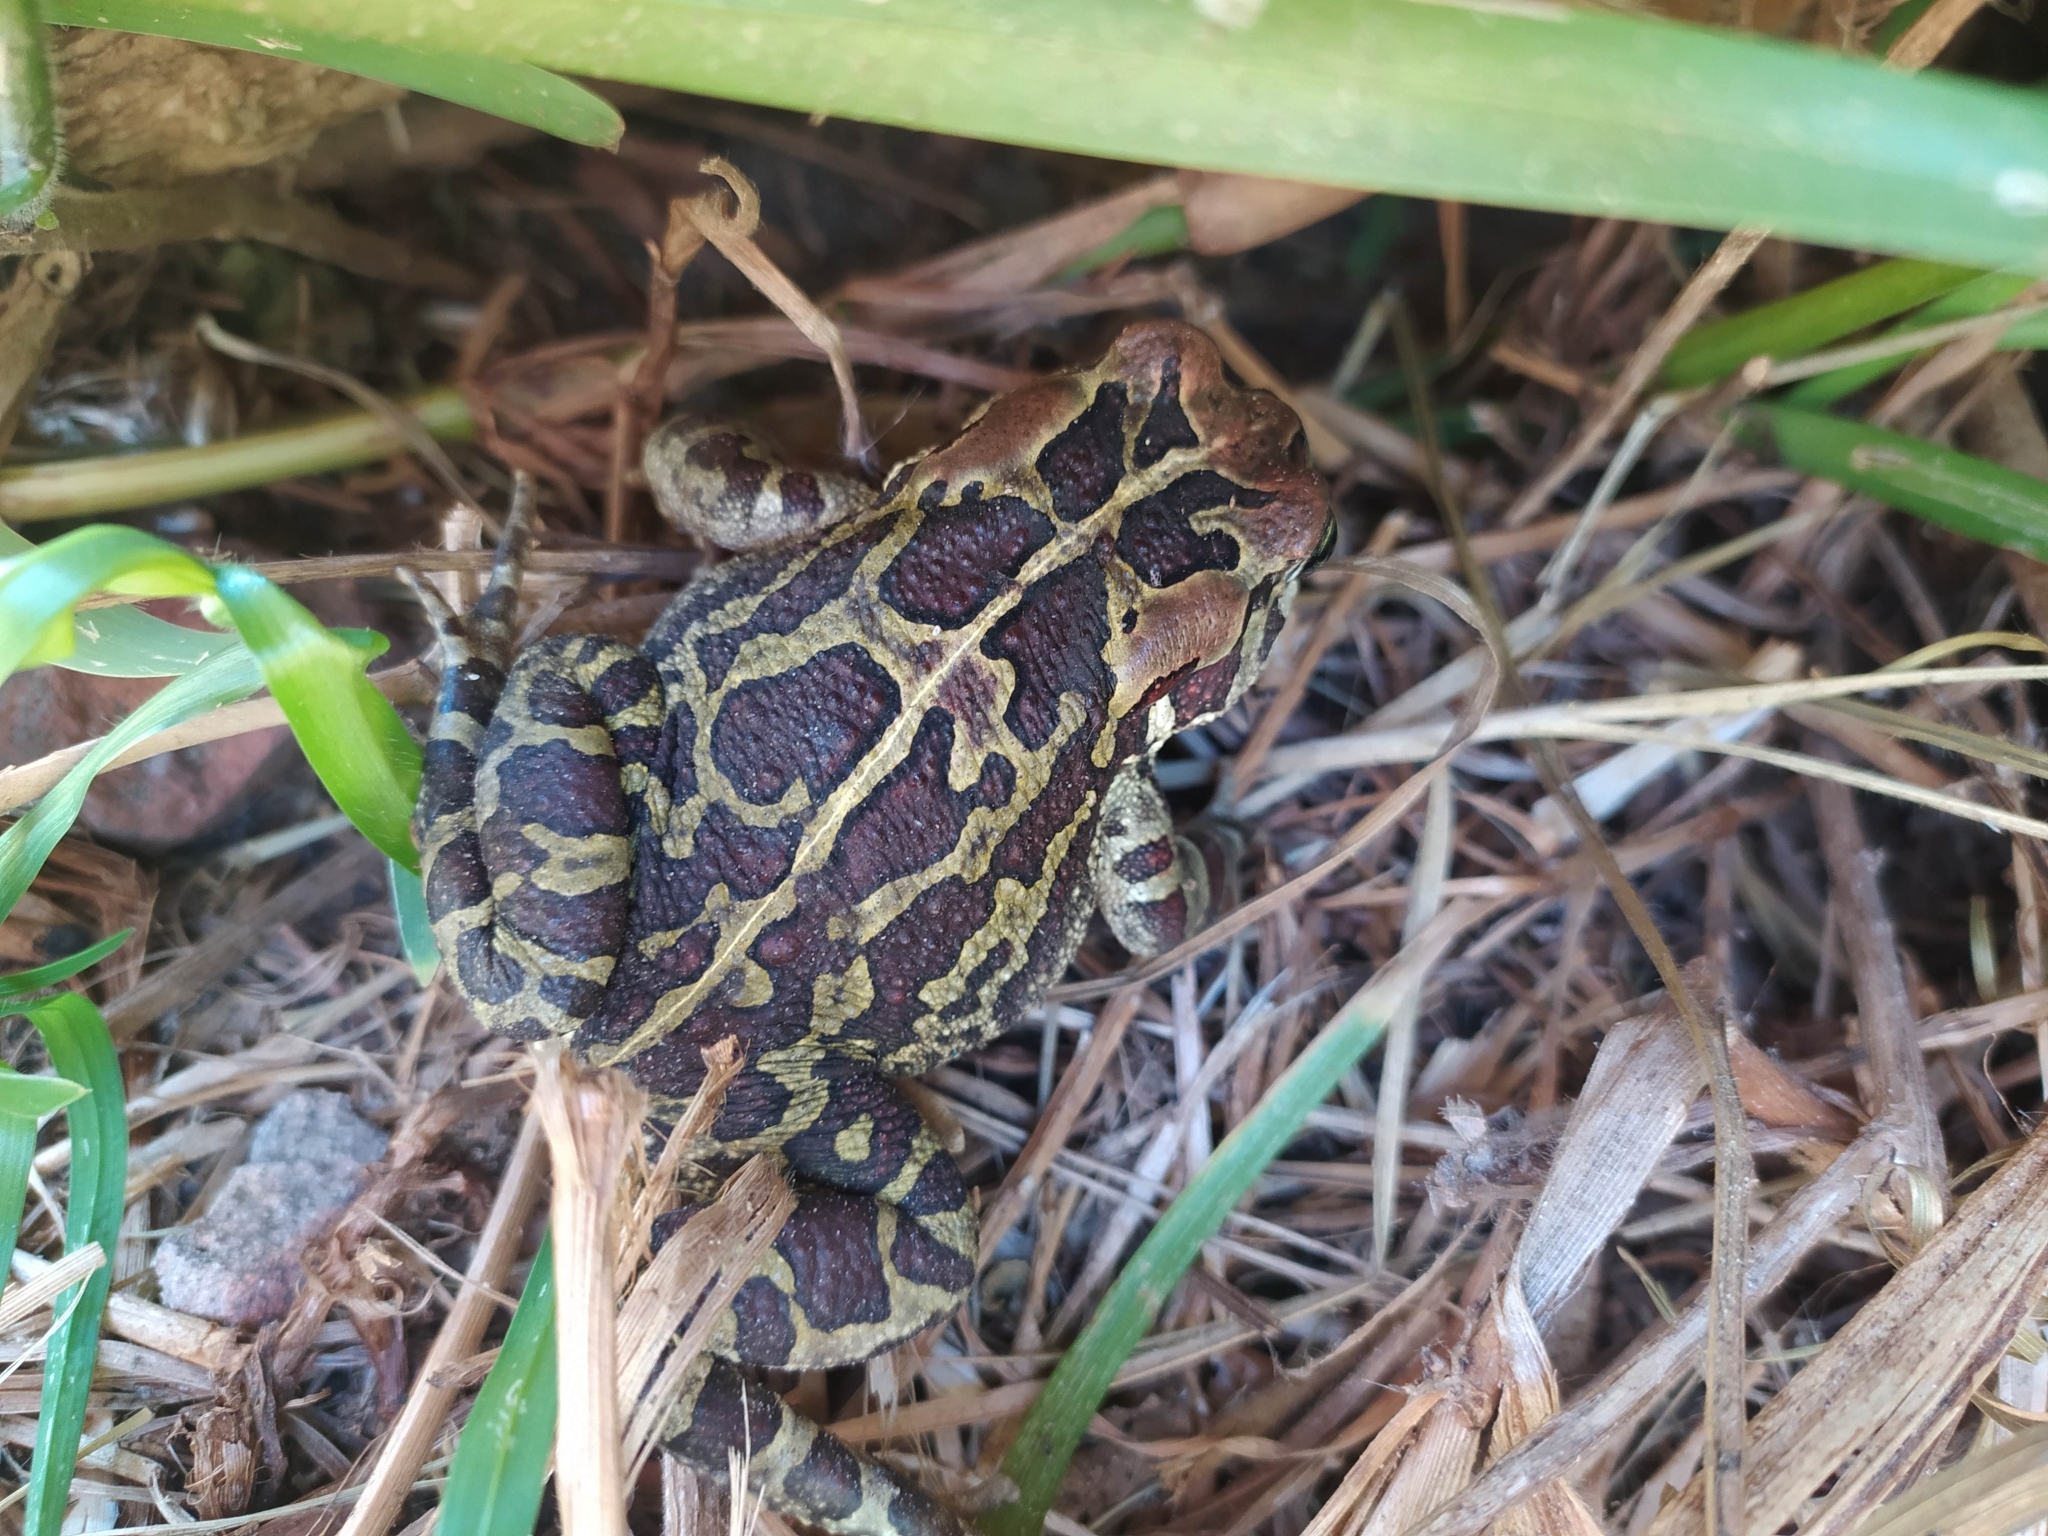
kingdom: Animalia
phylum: Chordata
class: Amphibia
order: Anura
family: Bufonidae
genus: Sclerophrys
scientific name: Sclerophrys pantherina
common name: Panther toad
